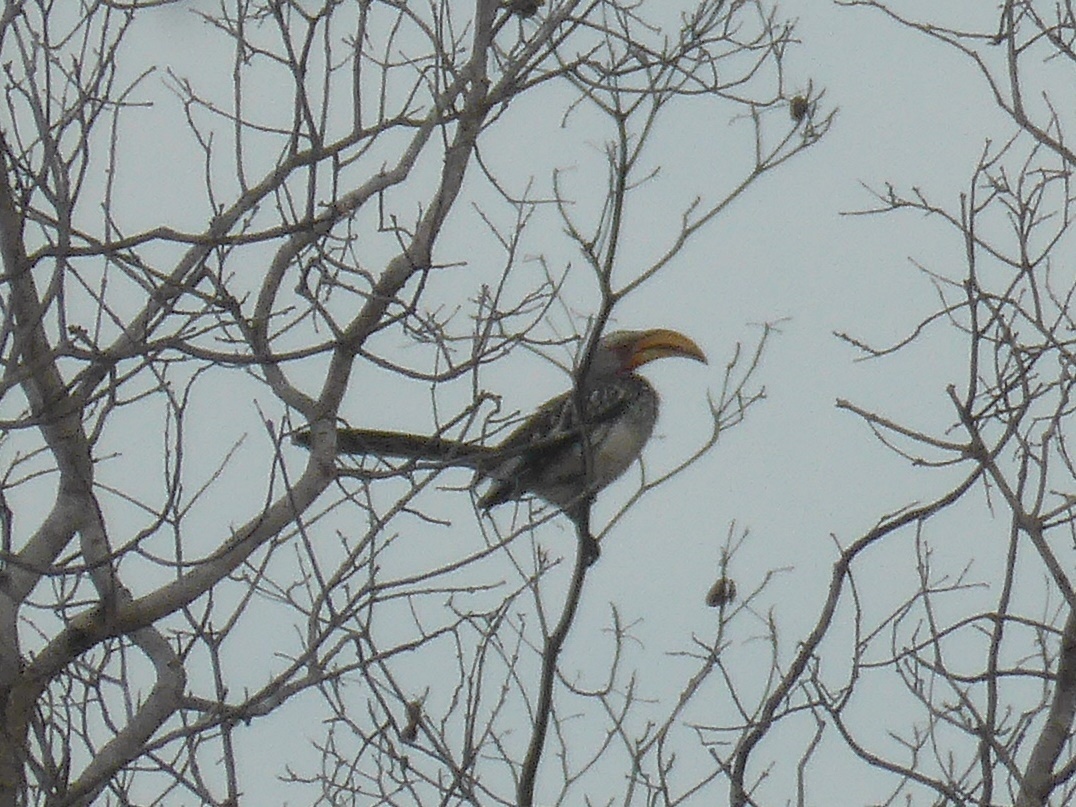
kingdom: Animalia
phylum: Chordata
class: Aves
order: Bucerotiformes
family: Bucerotidae
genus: Tockus
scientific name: Tockus leucomelas
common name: Southern yellow-billed hornbill
